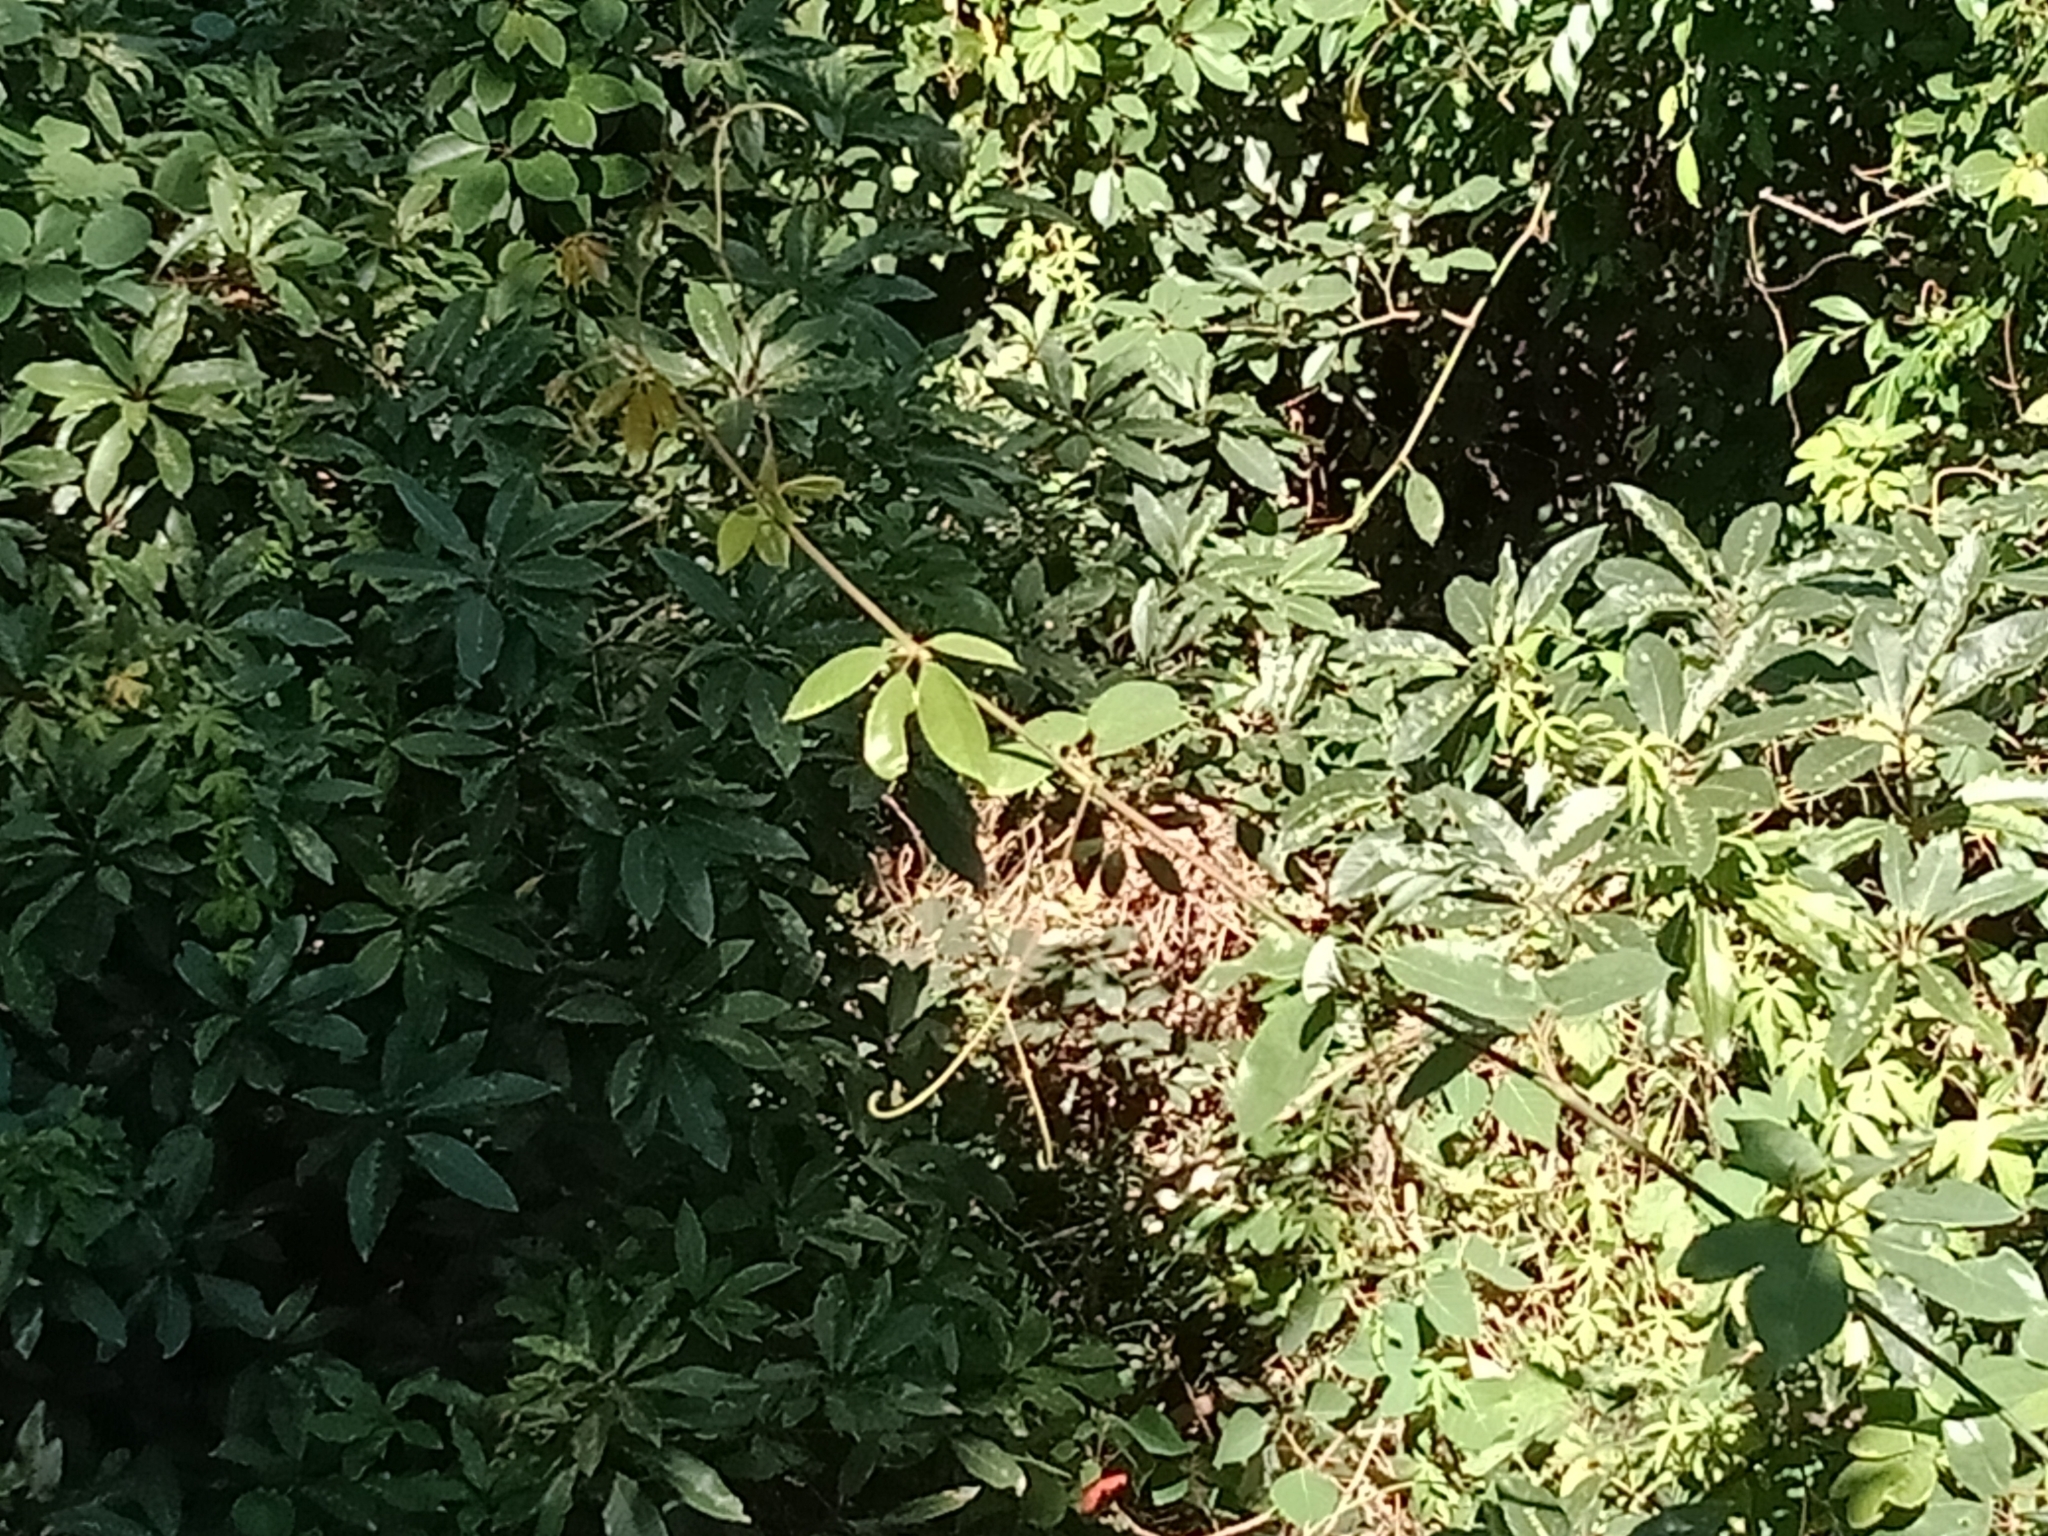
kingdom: Plantae
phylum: Tracheophyta
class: Magnoliopsida
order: Vitales
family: Vitaceae
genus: Nothocissus
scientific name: Nothocissus hypoglauca
